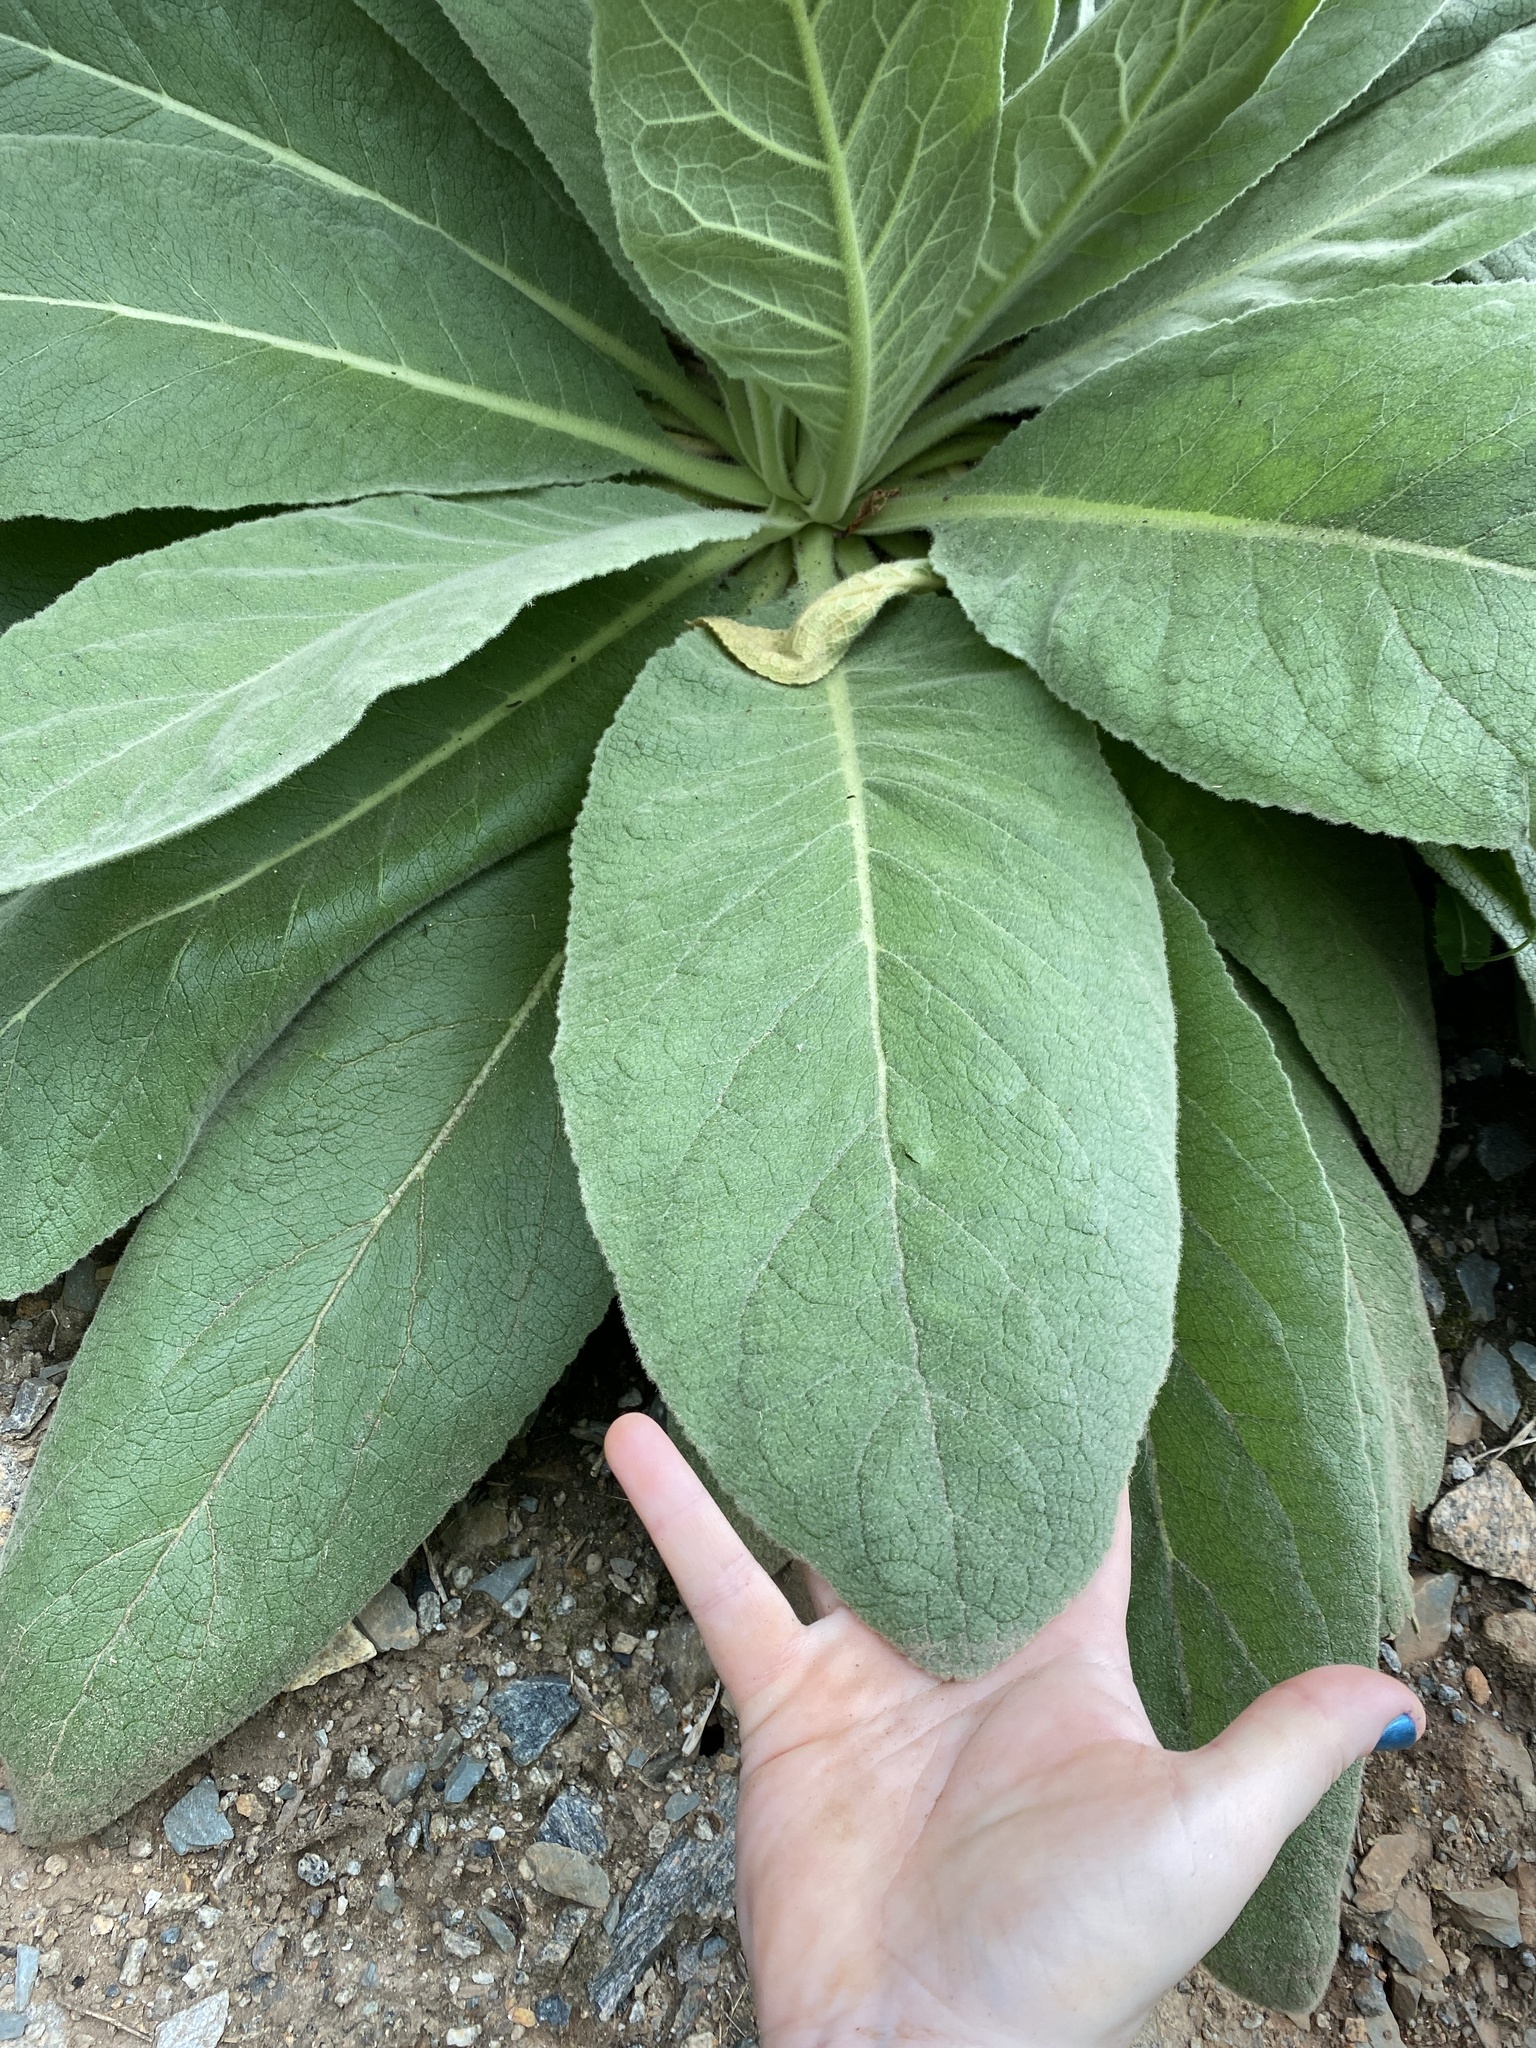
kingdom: Plantae
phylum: Tracheophyta
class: Magnoliopsida
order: Lamiales
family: Scrophulariaceae
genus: Verbascum
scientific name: Verbascum thapsus
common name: Common mullein
